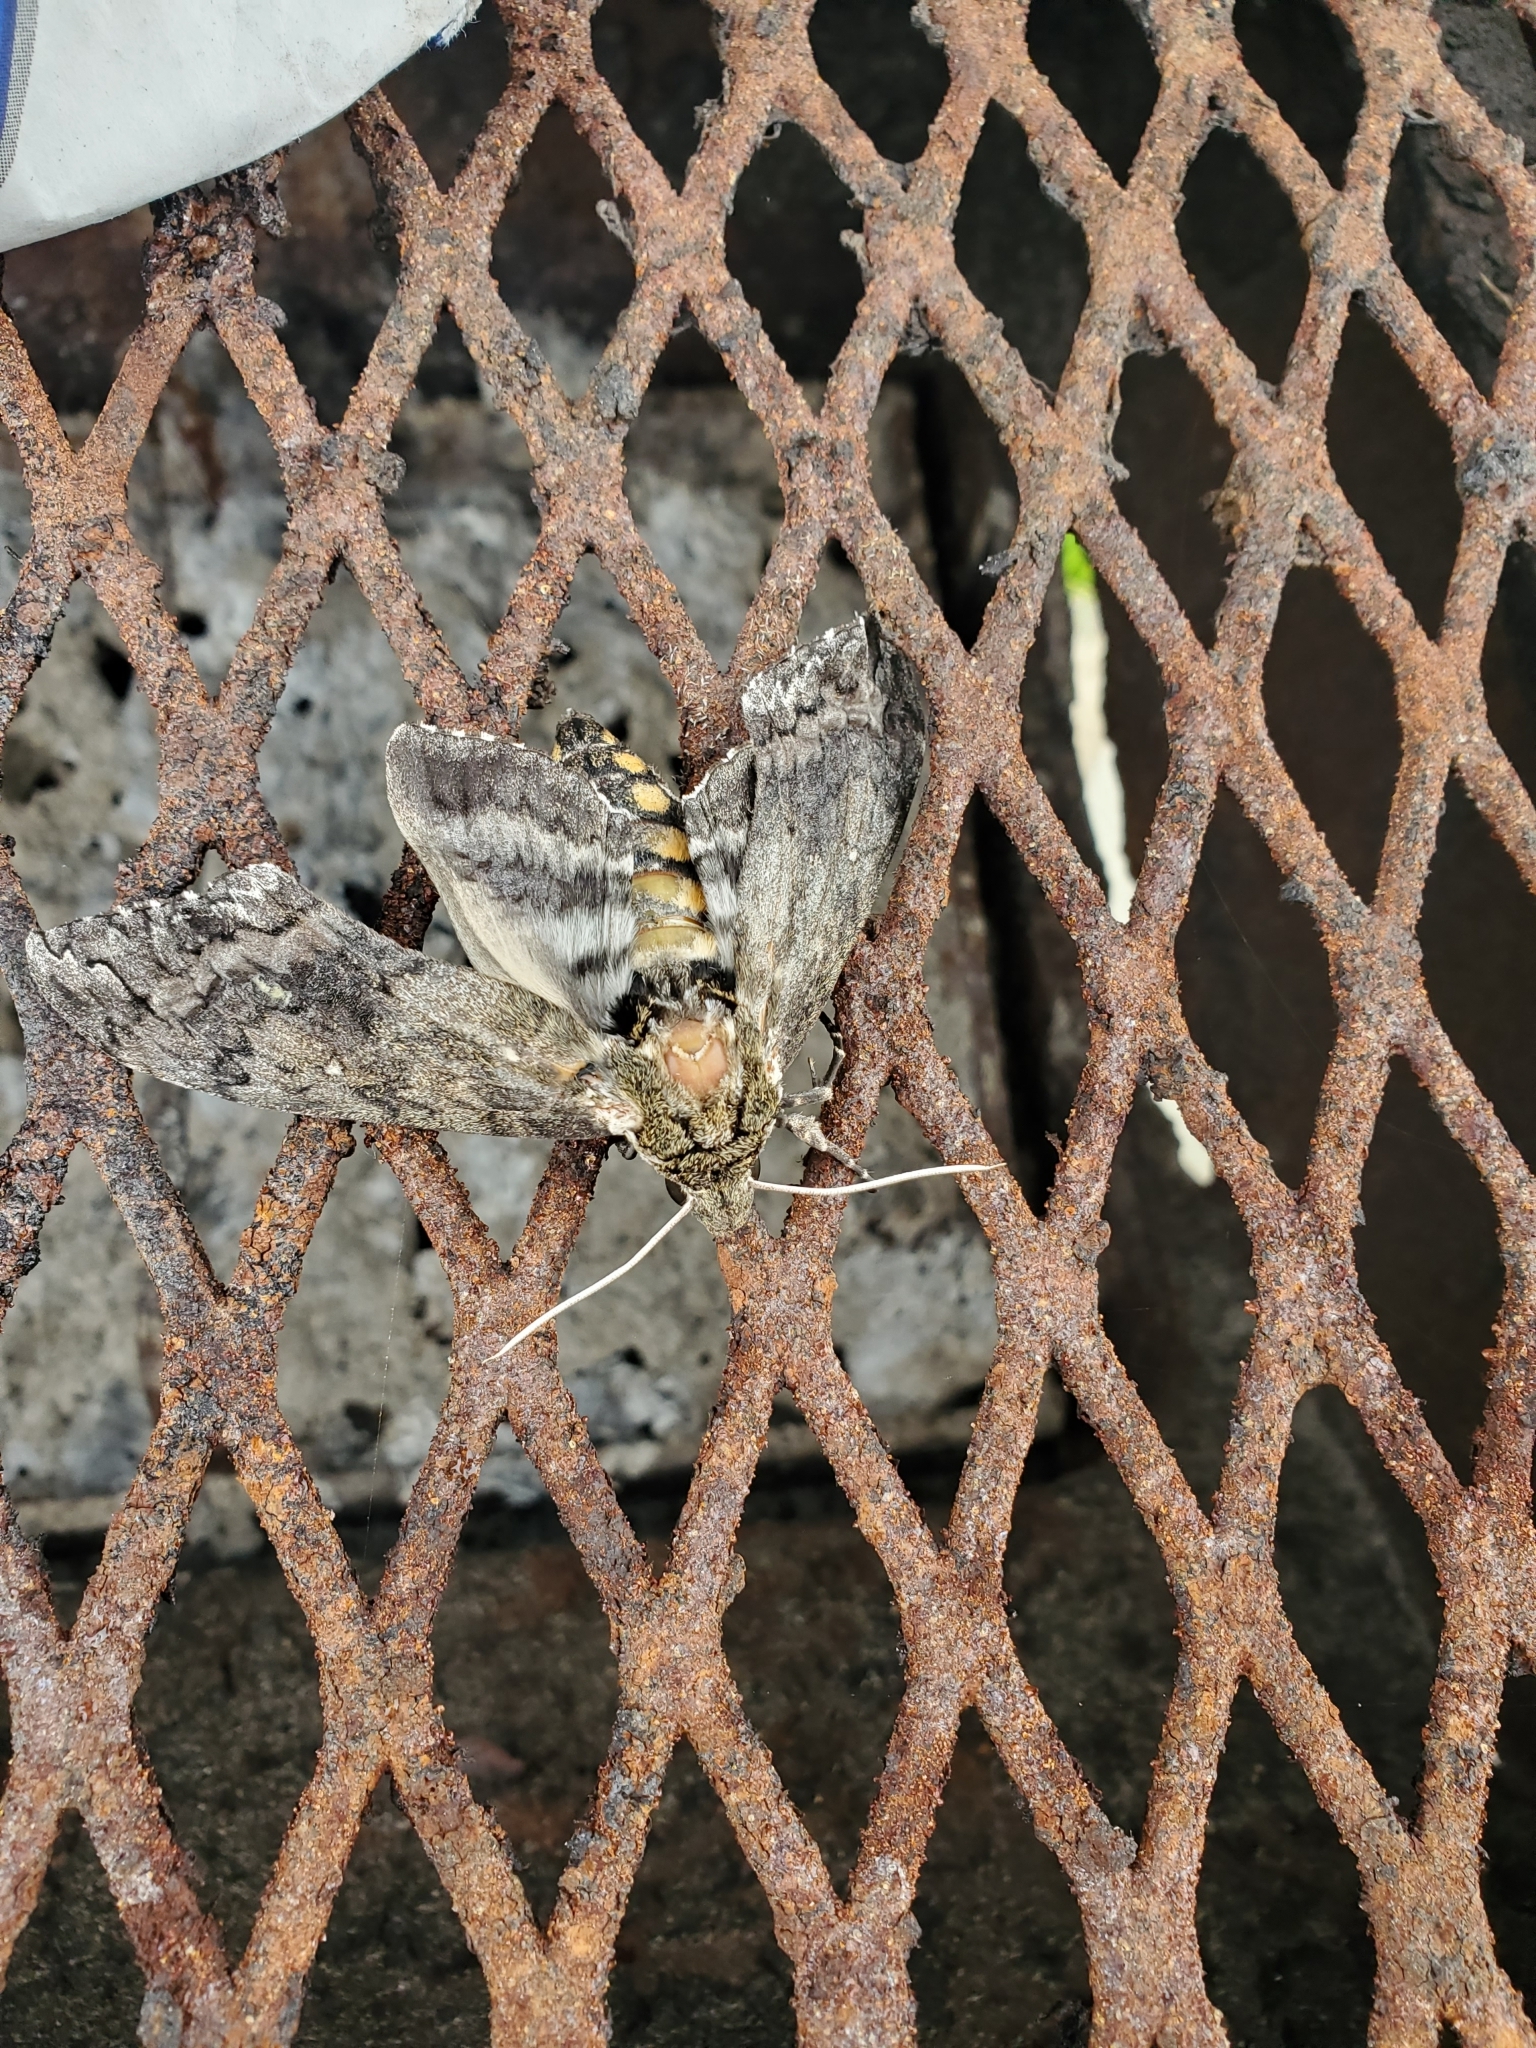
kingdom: Animalia
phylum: Arthropoda
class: Insecta
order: Lepidoptera
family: Sphingidae
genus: Manduca
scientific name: Manduca sexta
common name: Carolina sphinx
